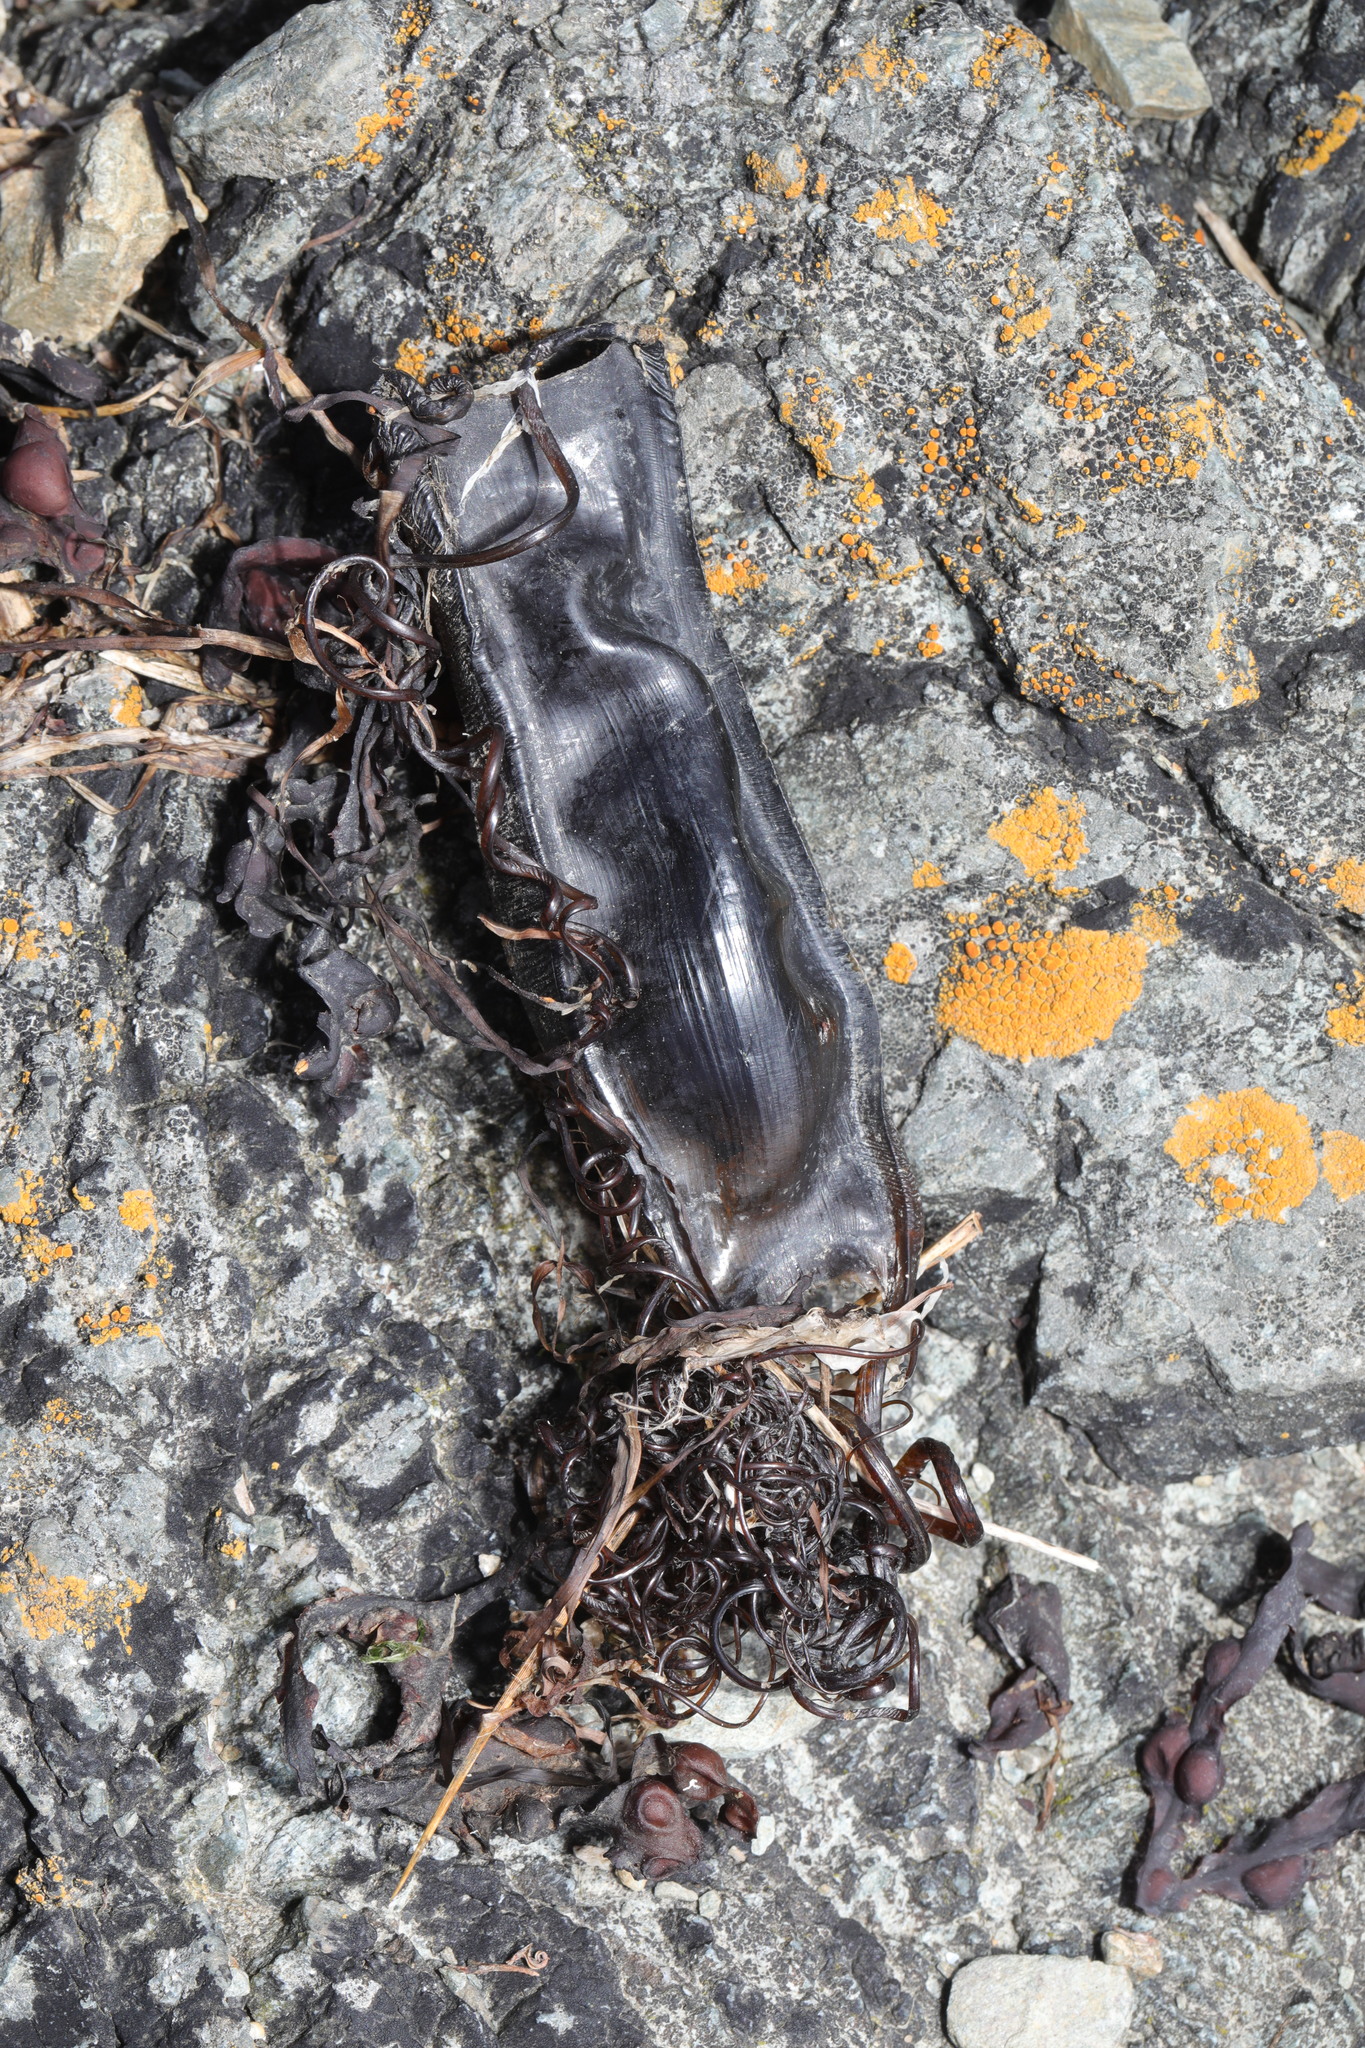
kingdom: Animalia
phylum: Chordata
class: Elasmobranchii
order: Carcharhiniformes
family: Scyliorhinidae
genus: Scyliorhinus
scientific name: Scyliorhinus canicula
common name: Lesser spotted dogfish
